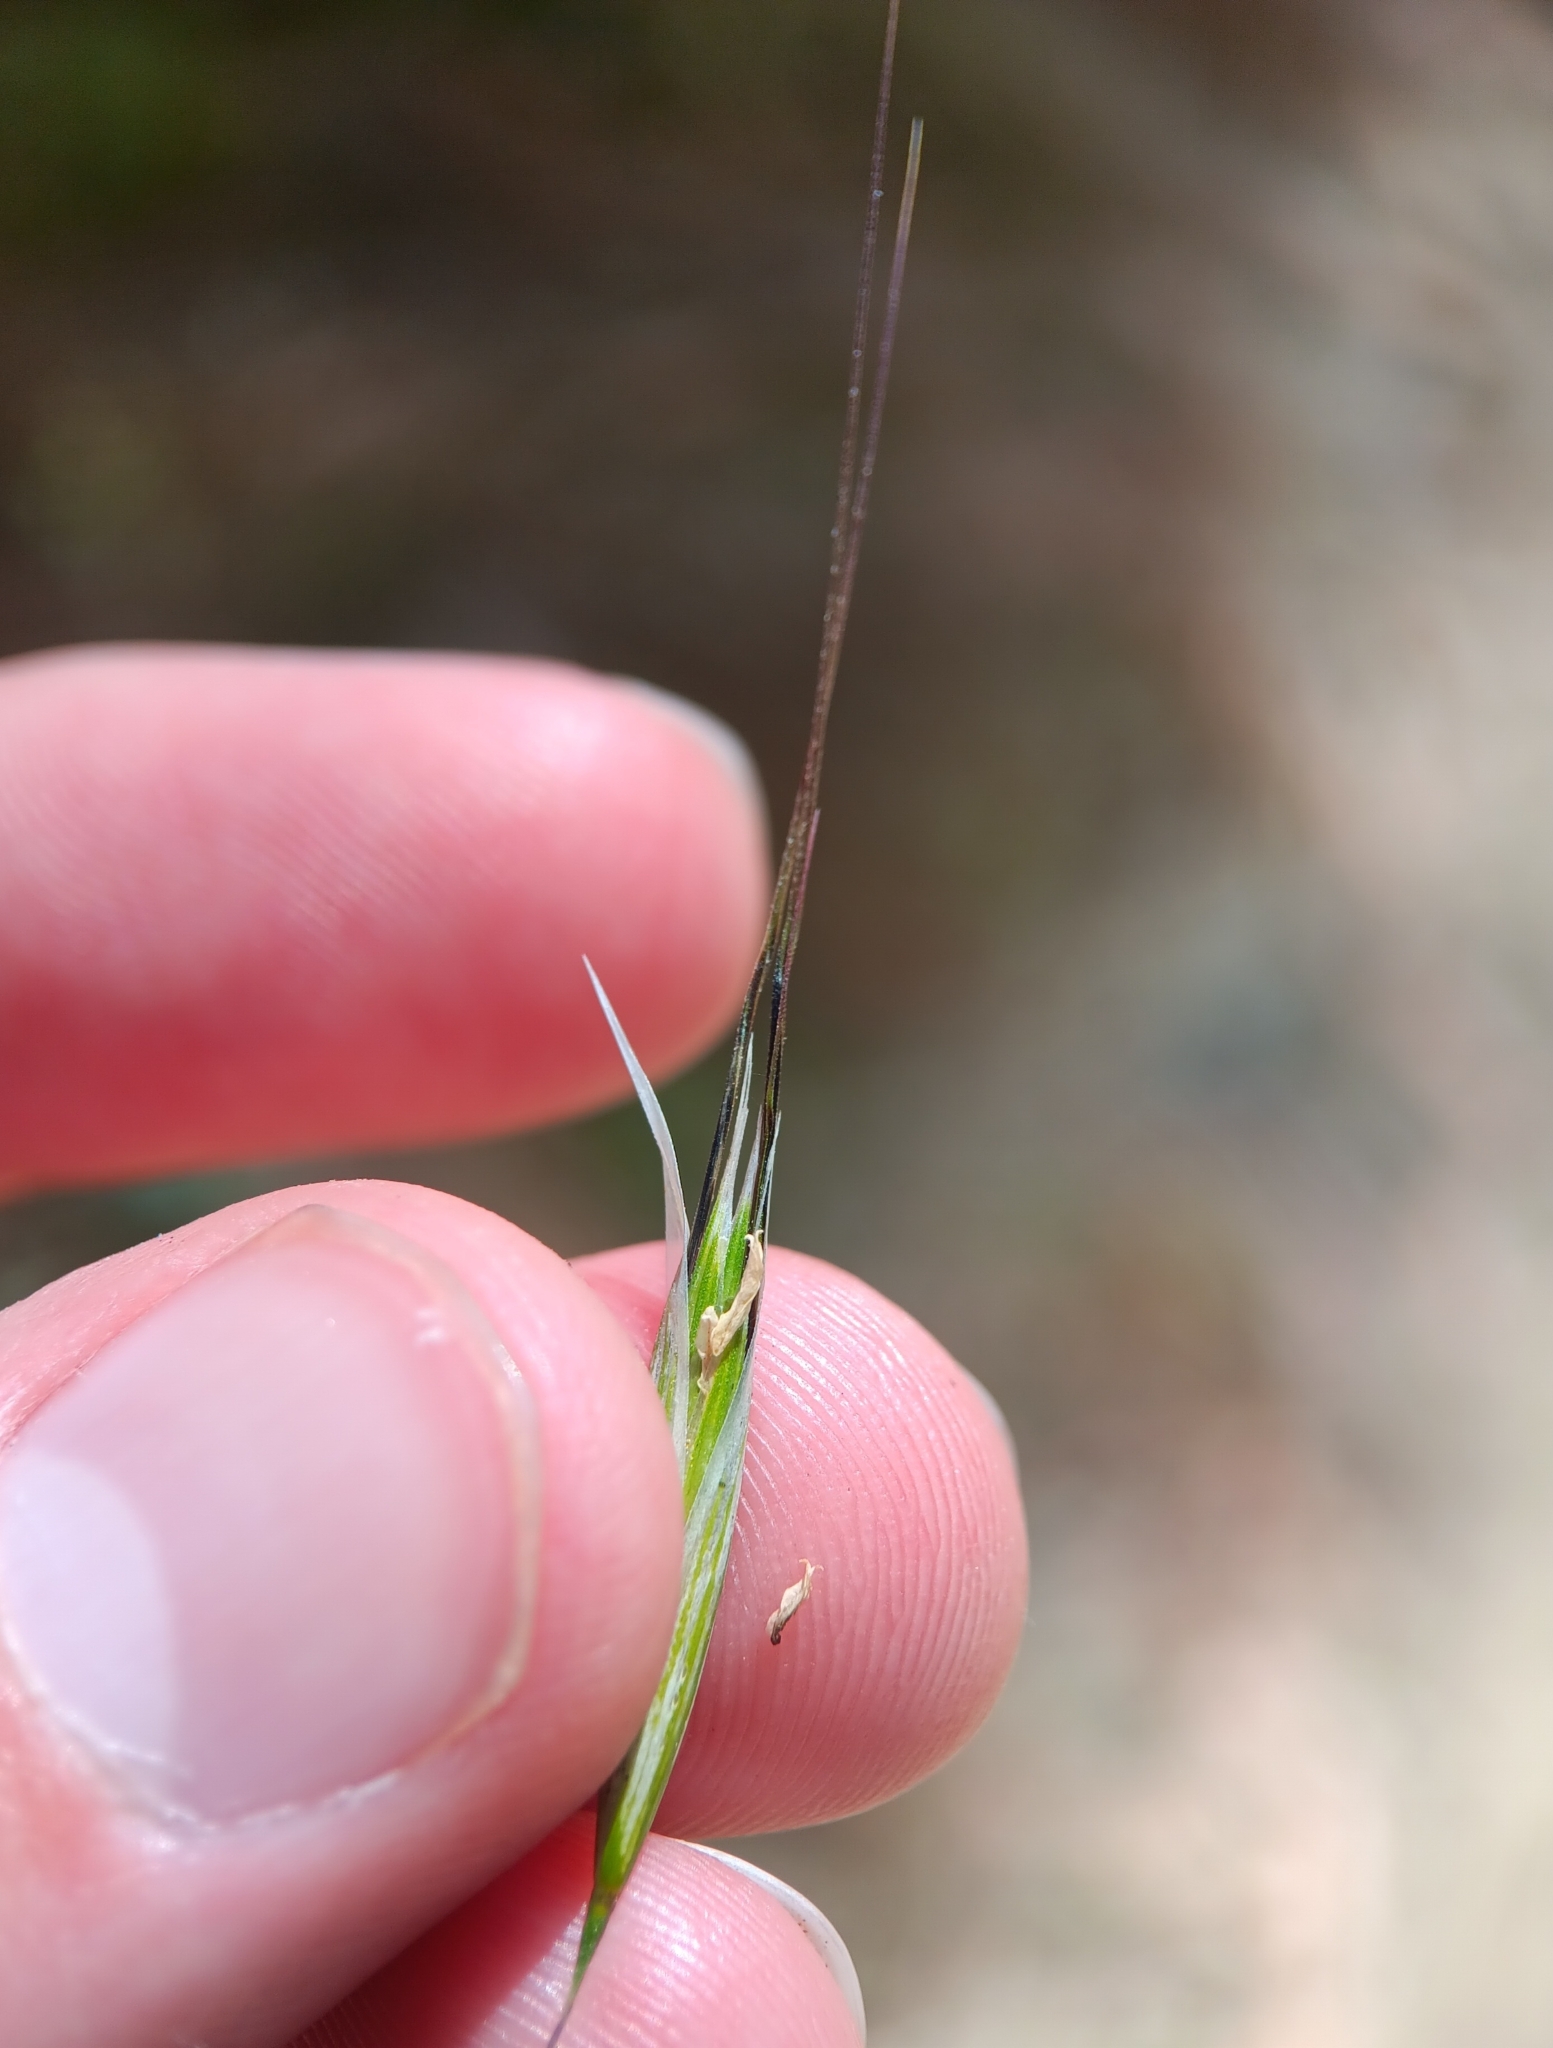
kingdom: Plantae
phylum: Tracheophyta
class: Liliopsida
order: Poales
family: Poaceae
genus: Avena
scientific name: Avena barbata
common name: Slender oat
